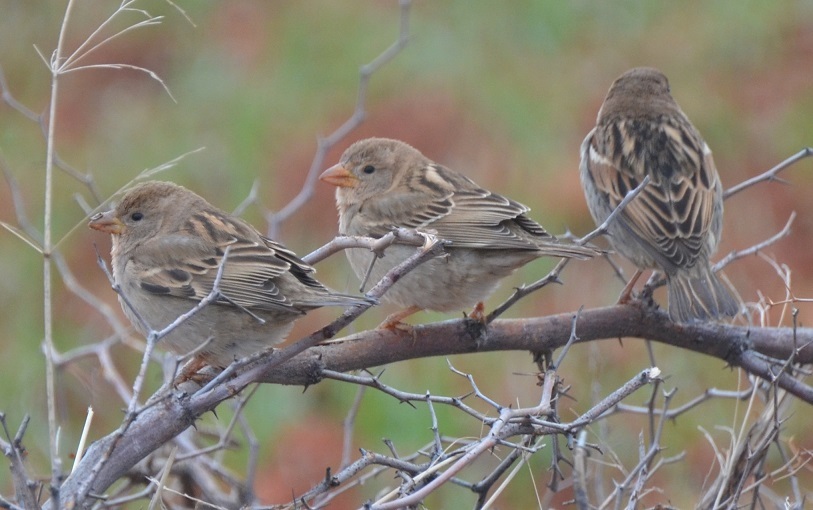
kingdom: Animalia
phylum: Chordata
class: Aves
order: Passeriformes
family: Passeridae
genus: Passer
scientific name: Passer domesticus
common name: House sparrow
